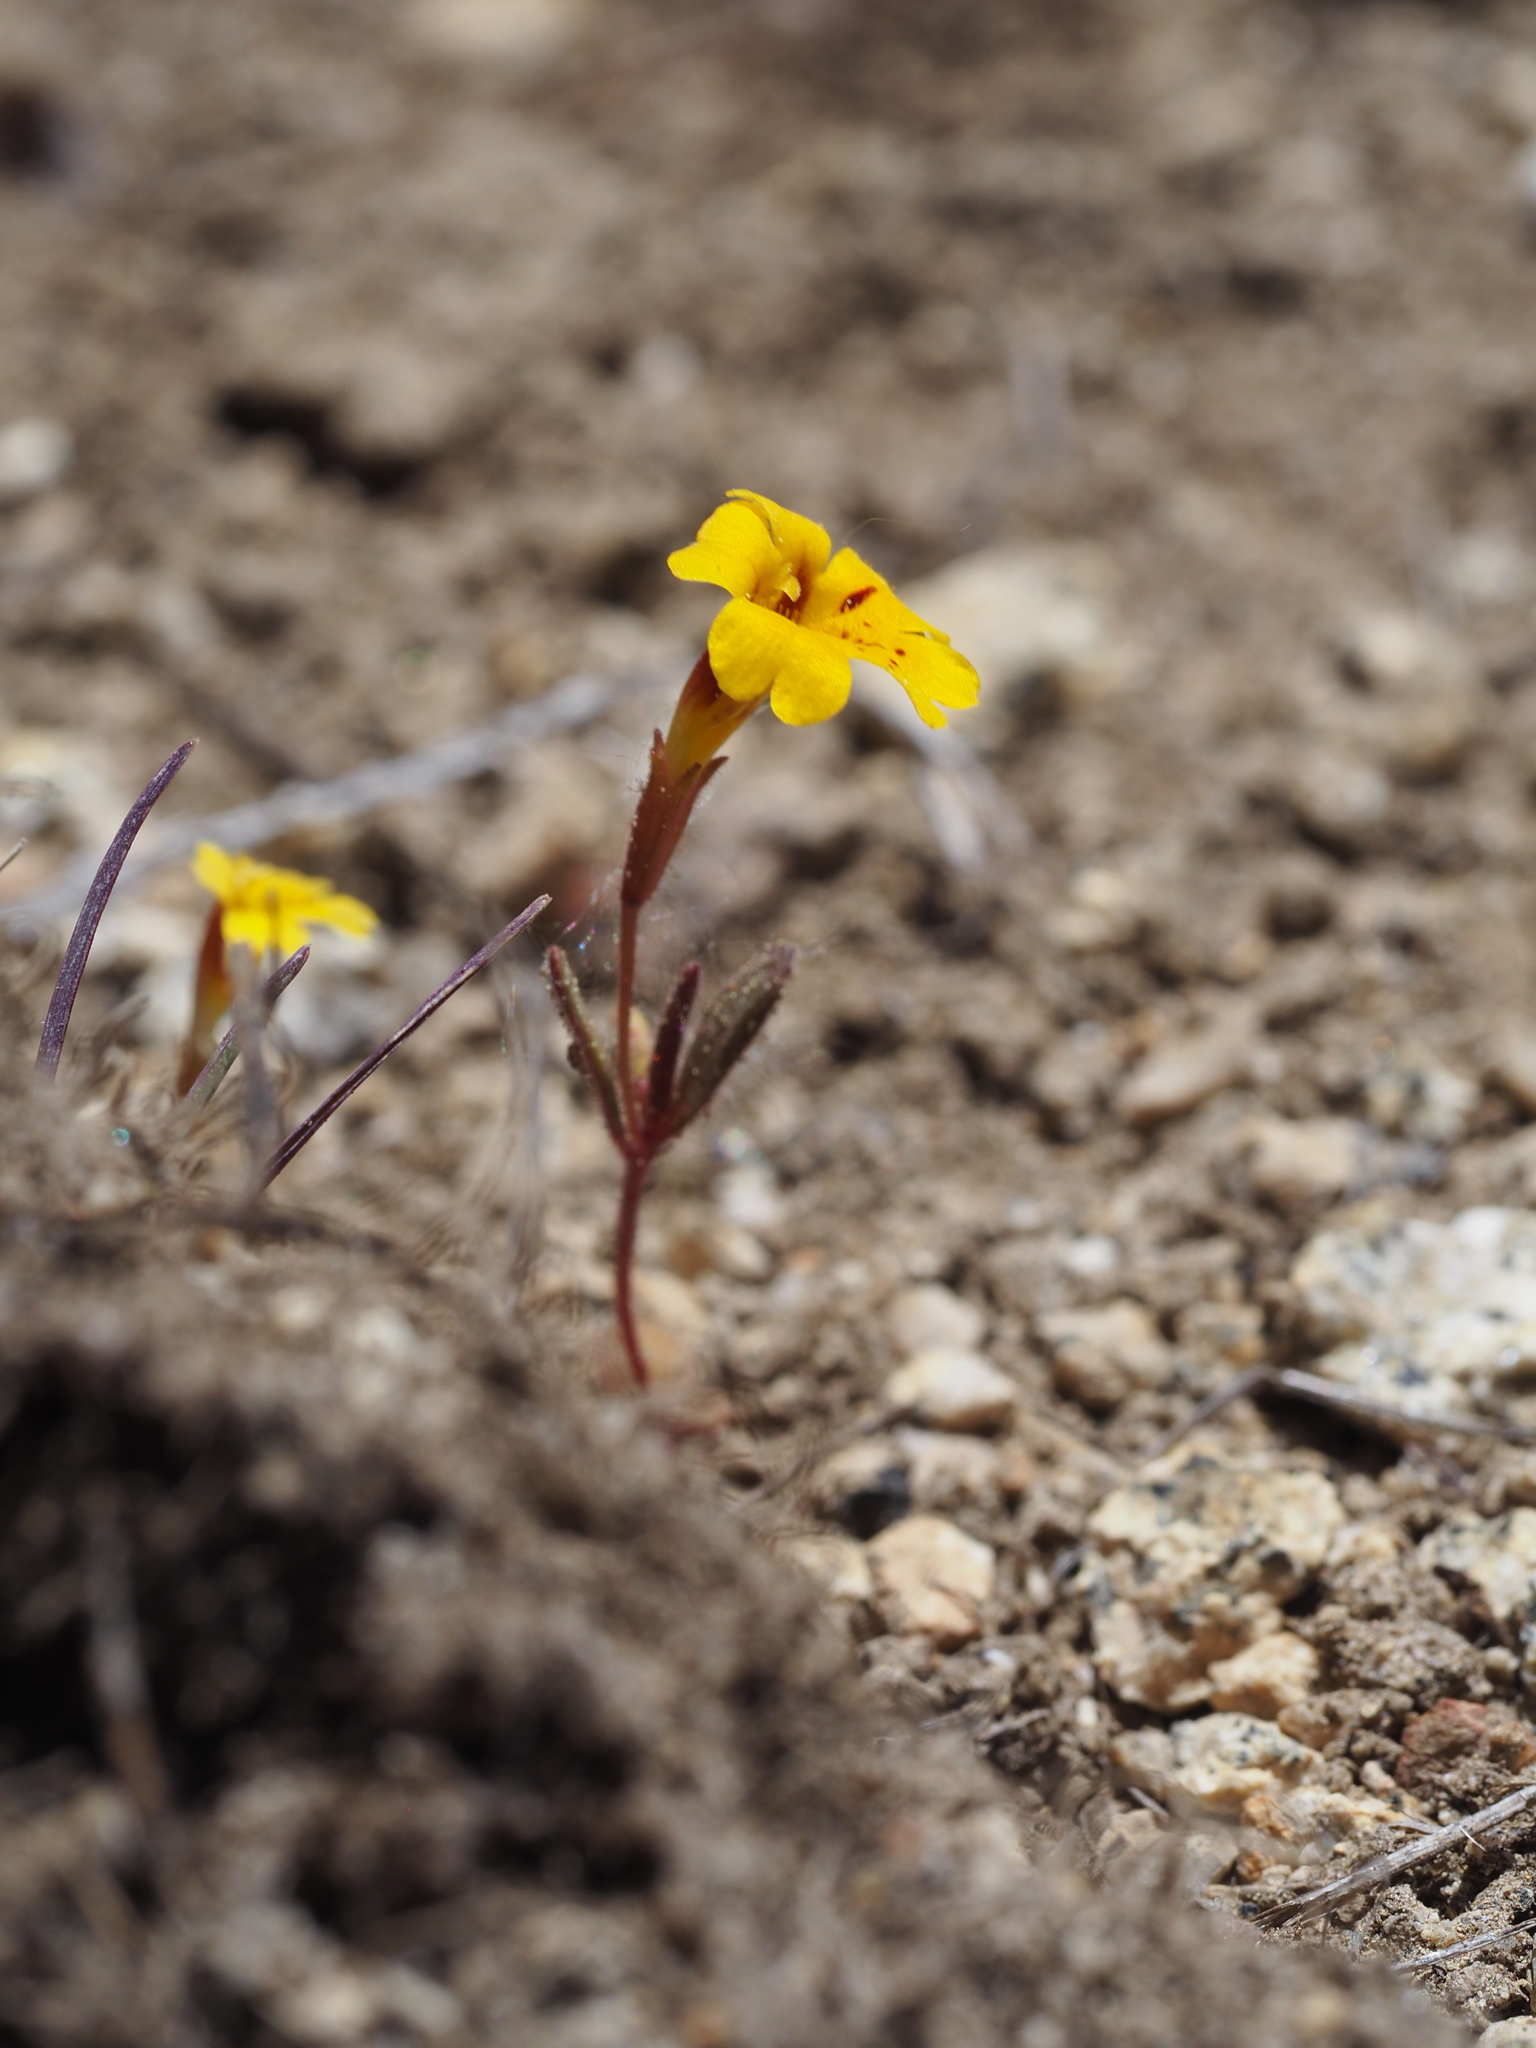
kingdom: Plantae
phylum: Tracheophyta
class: Magnoliopsida
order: Lamiales
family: Phrymaceae
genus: Erythranthe
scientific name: Erythranthe barbata
